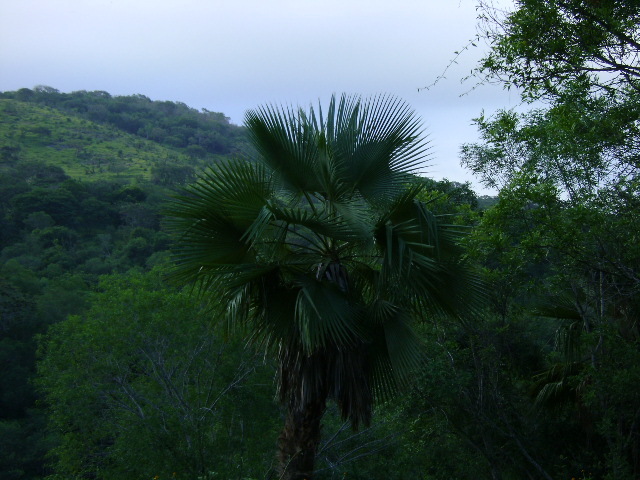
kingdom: Plantae
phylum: Tracheophyta
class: Liliopsida
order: Arecales
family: Arecaceae
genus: Brahea
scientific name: Brahea dulcis
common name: Apak palm
